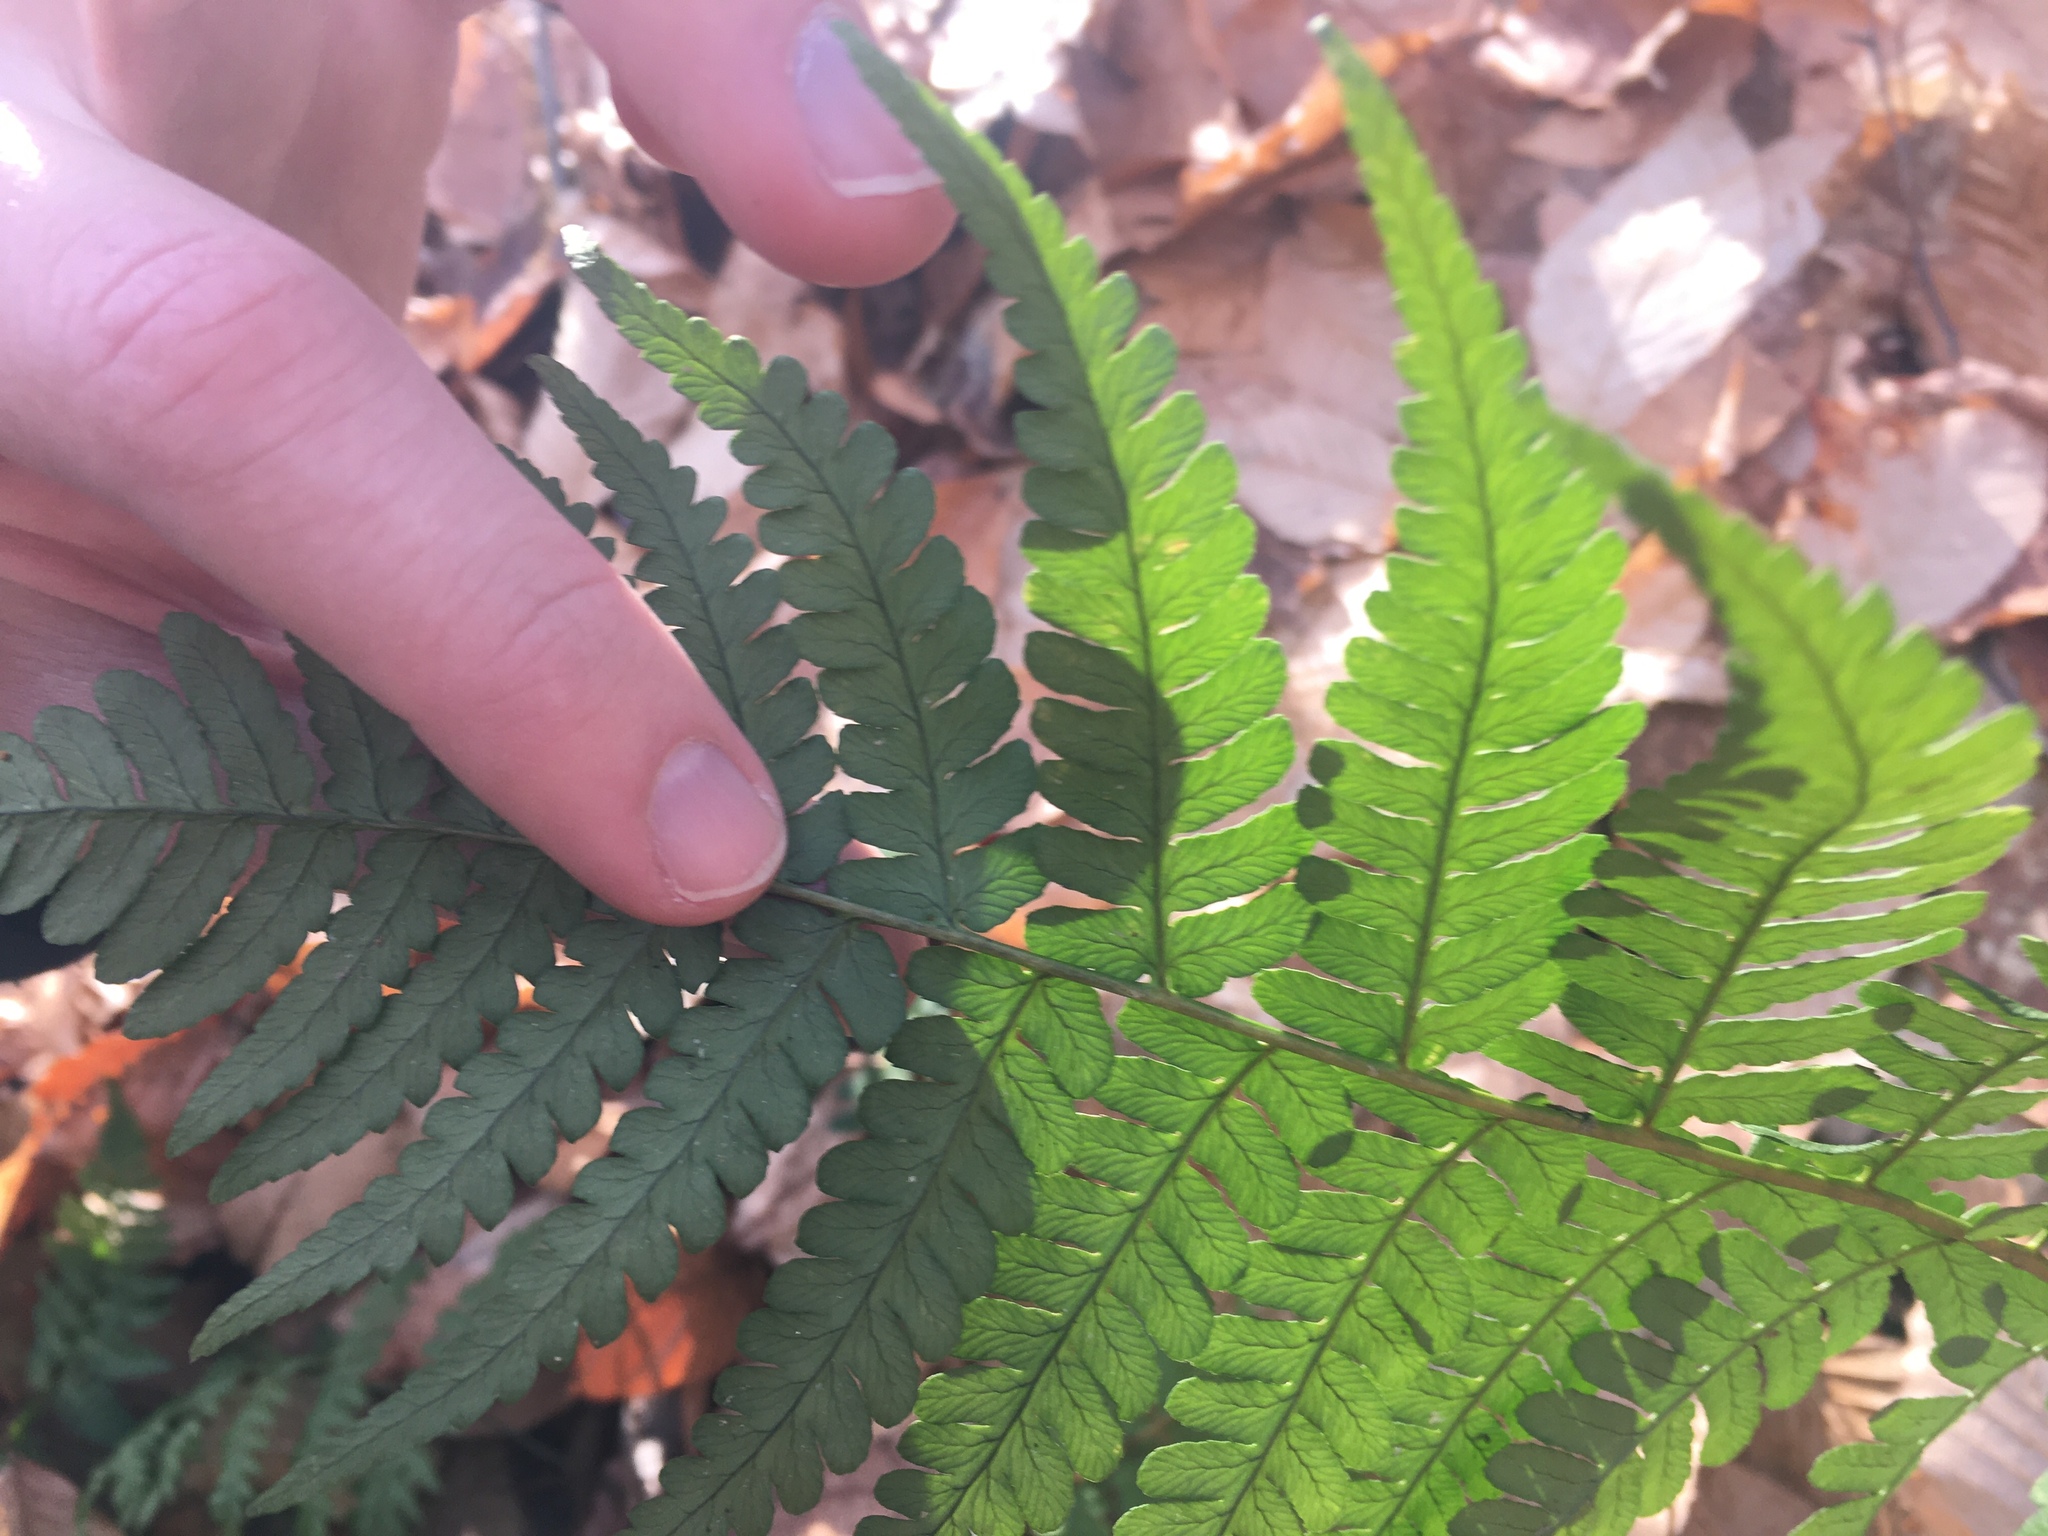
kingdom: Plantae
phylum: Tracheophyta
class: Polypodiopsida
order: Polypodiales
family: Dryopteridaceae
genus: Dryopteris
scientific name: Dryopteris marginalis
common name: Marginal wood fern
